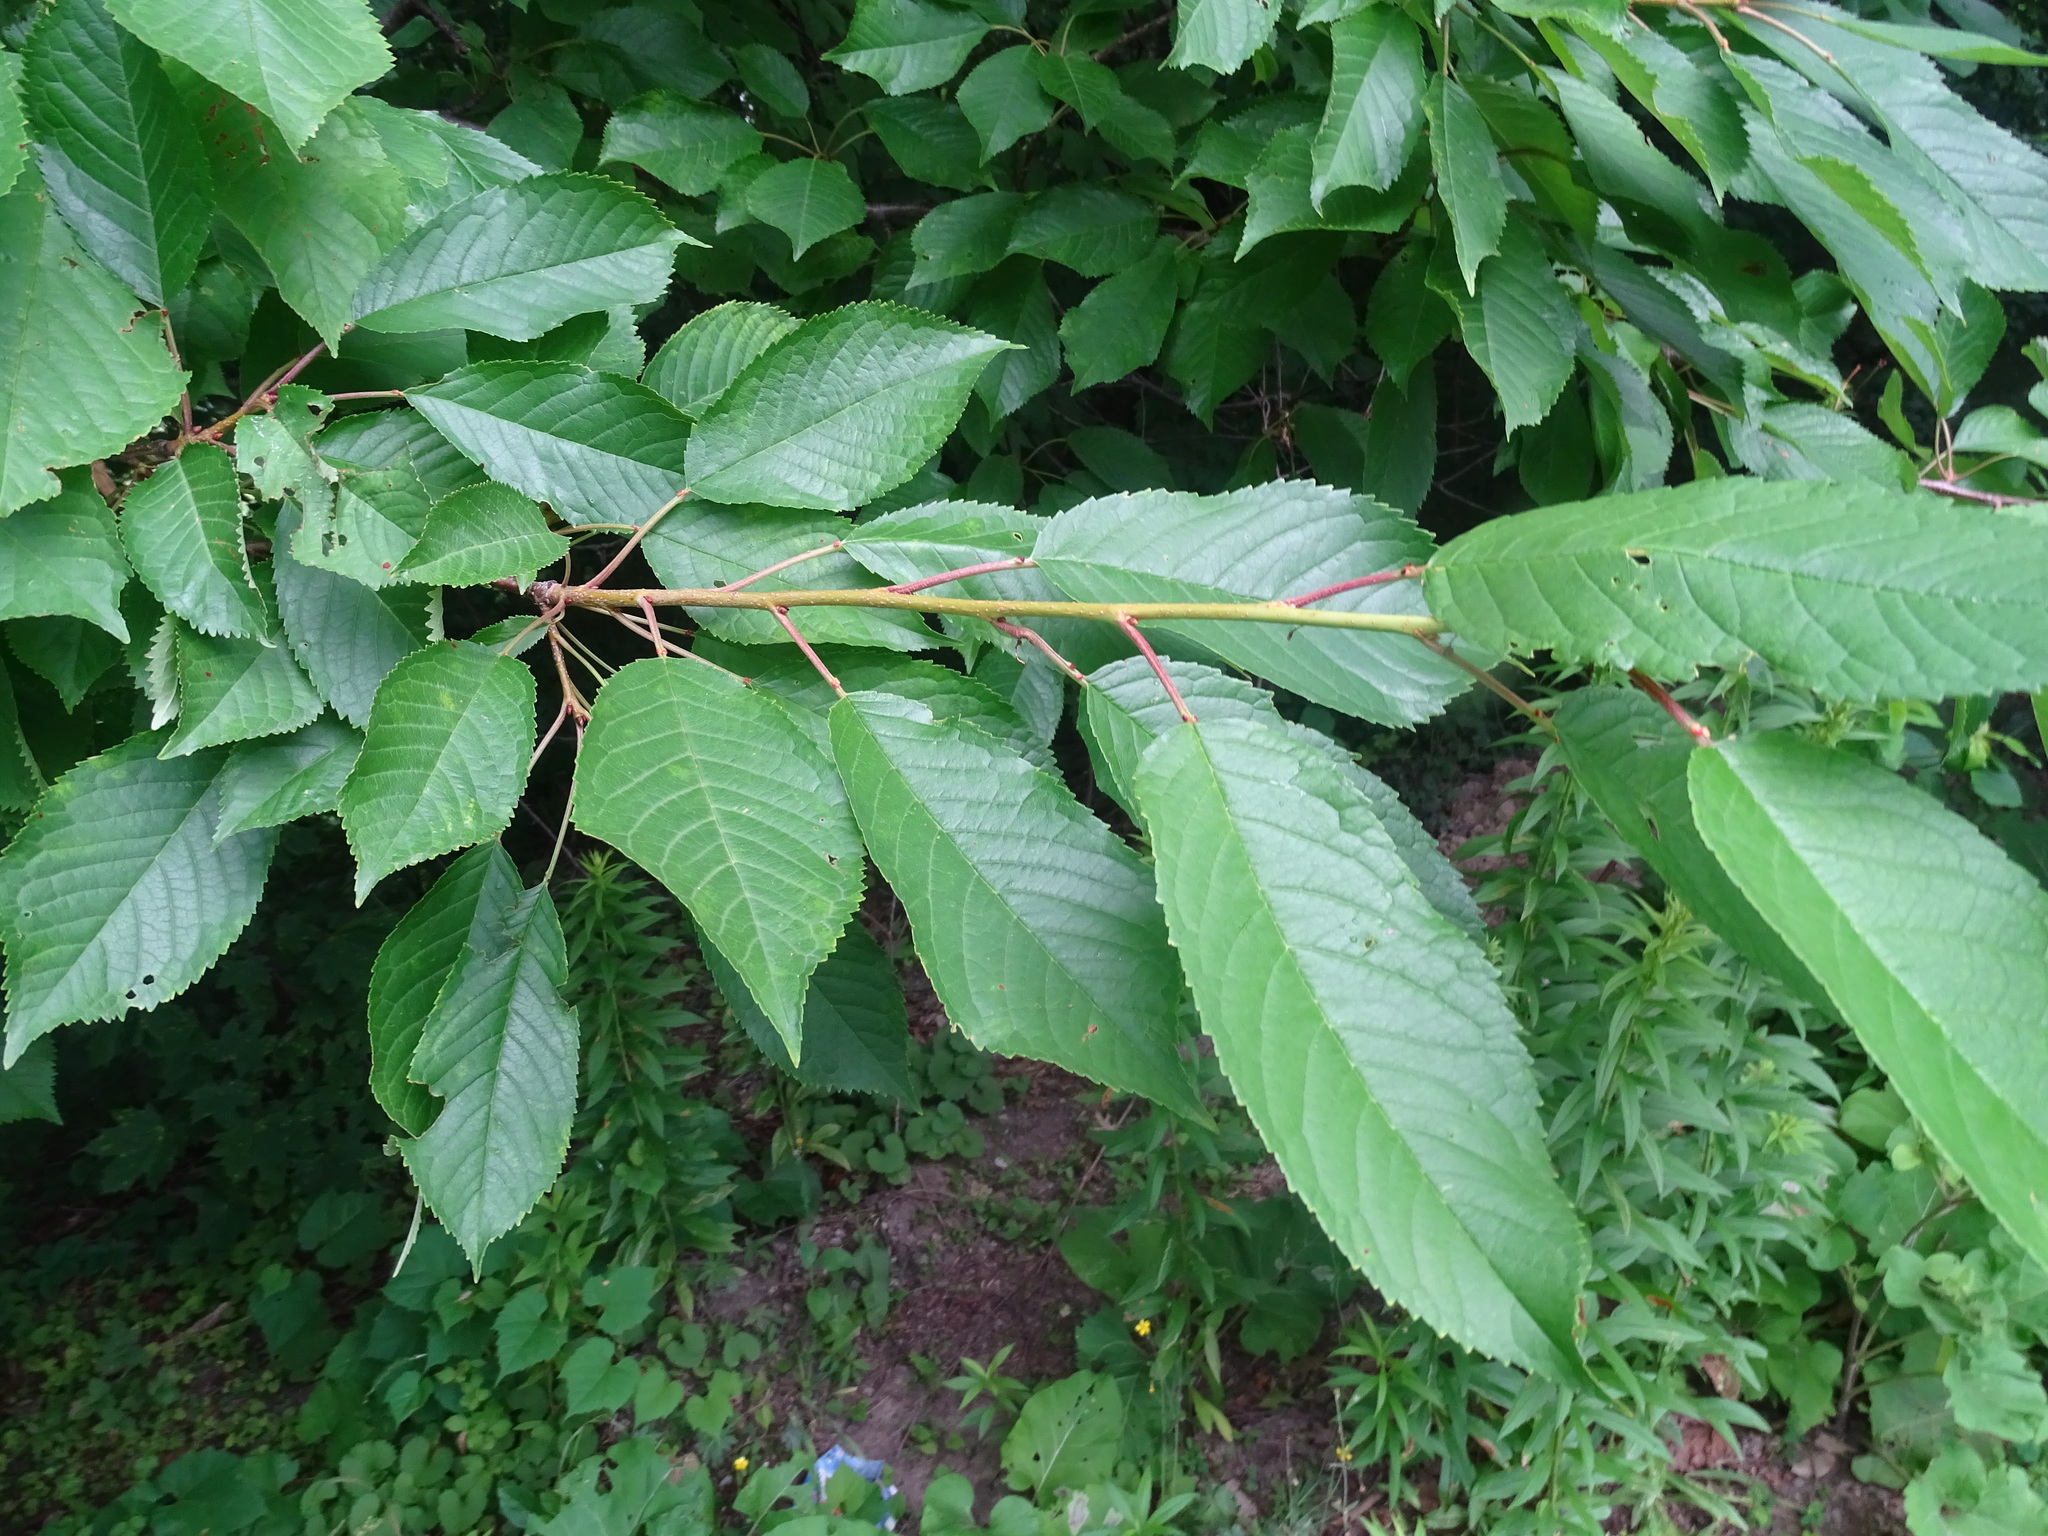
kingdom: Plantae
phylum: Tracheophyta
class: Magnoliopsida
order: Rosales
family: Rosaceae
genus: Prunus
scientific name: Prunus avium
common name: Sweet cherry
